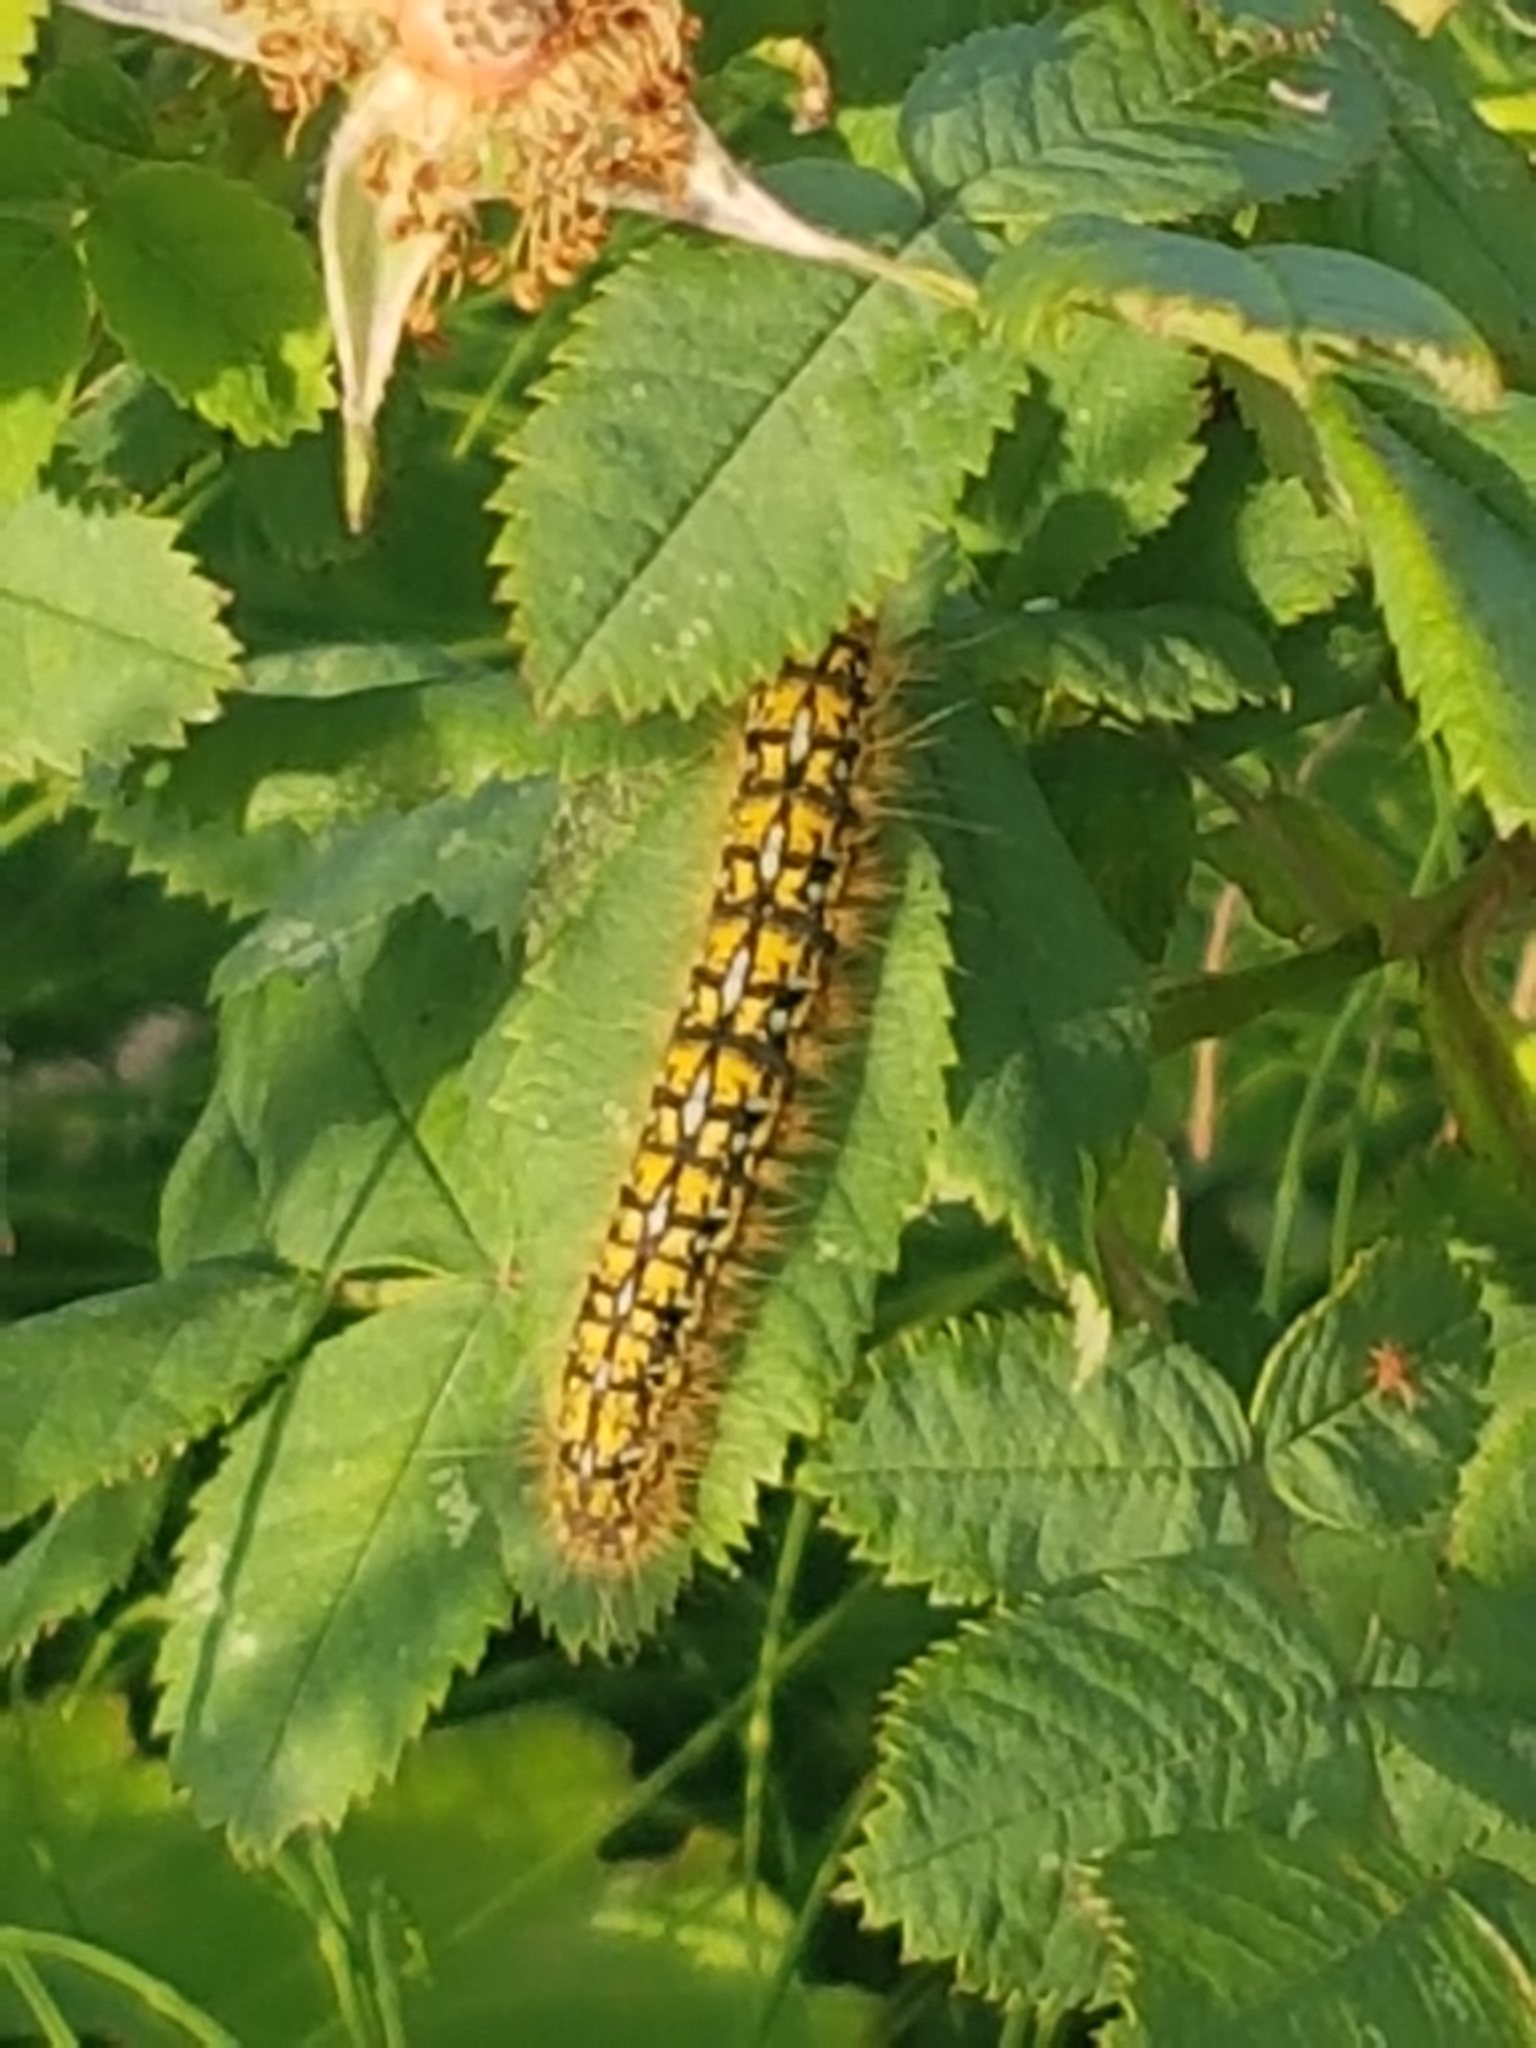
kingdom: Animalia
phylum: Arthropoda
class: Insecta
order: Lepidoptera
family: Lasiocampidae
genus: Malacosoma
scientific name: Malacosoma californica
